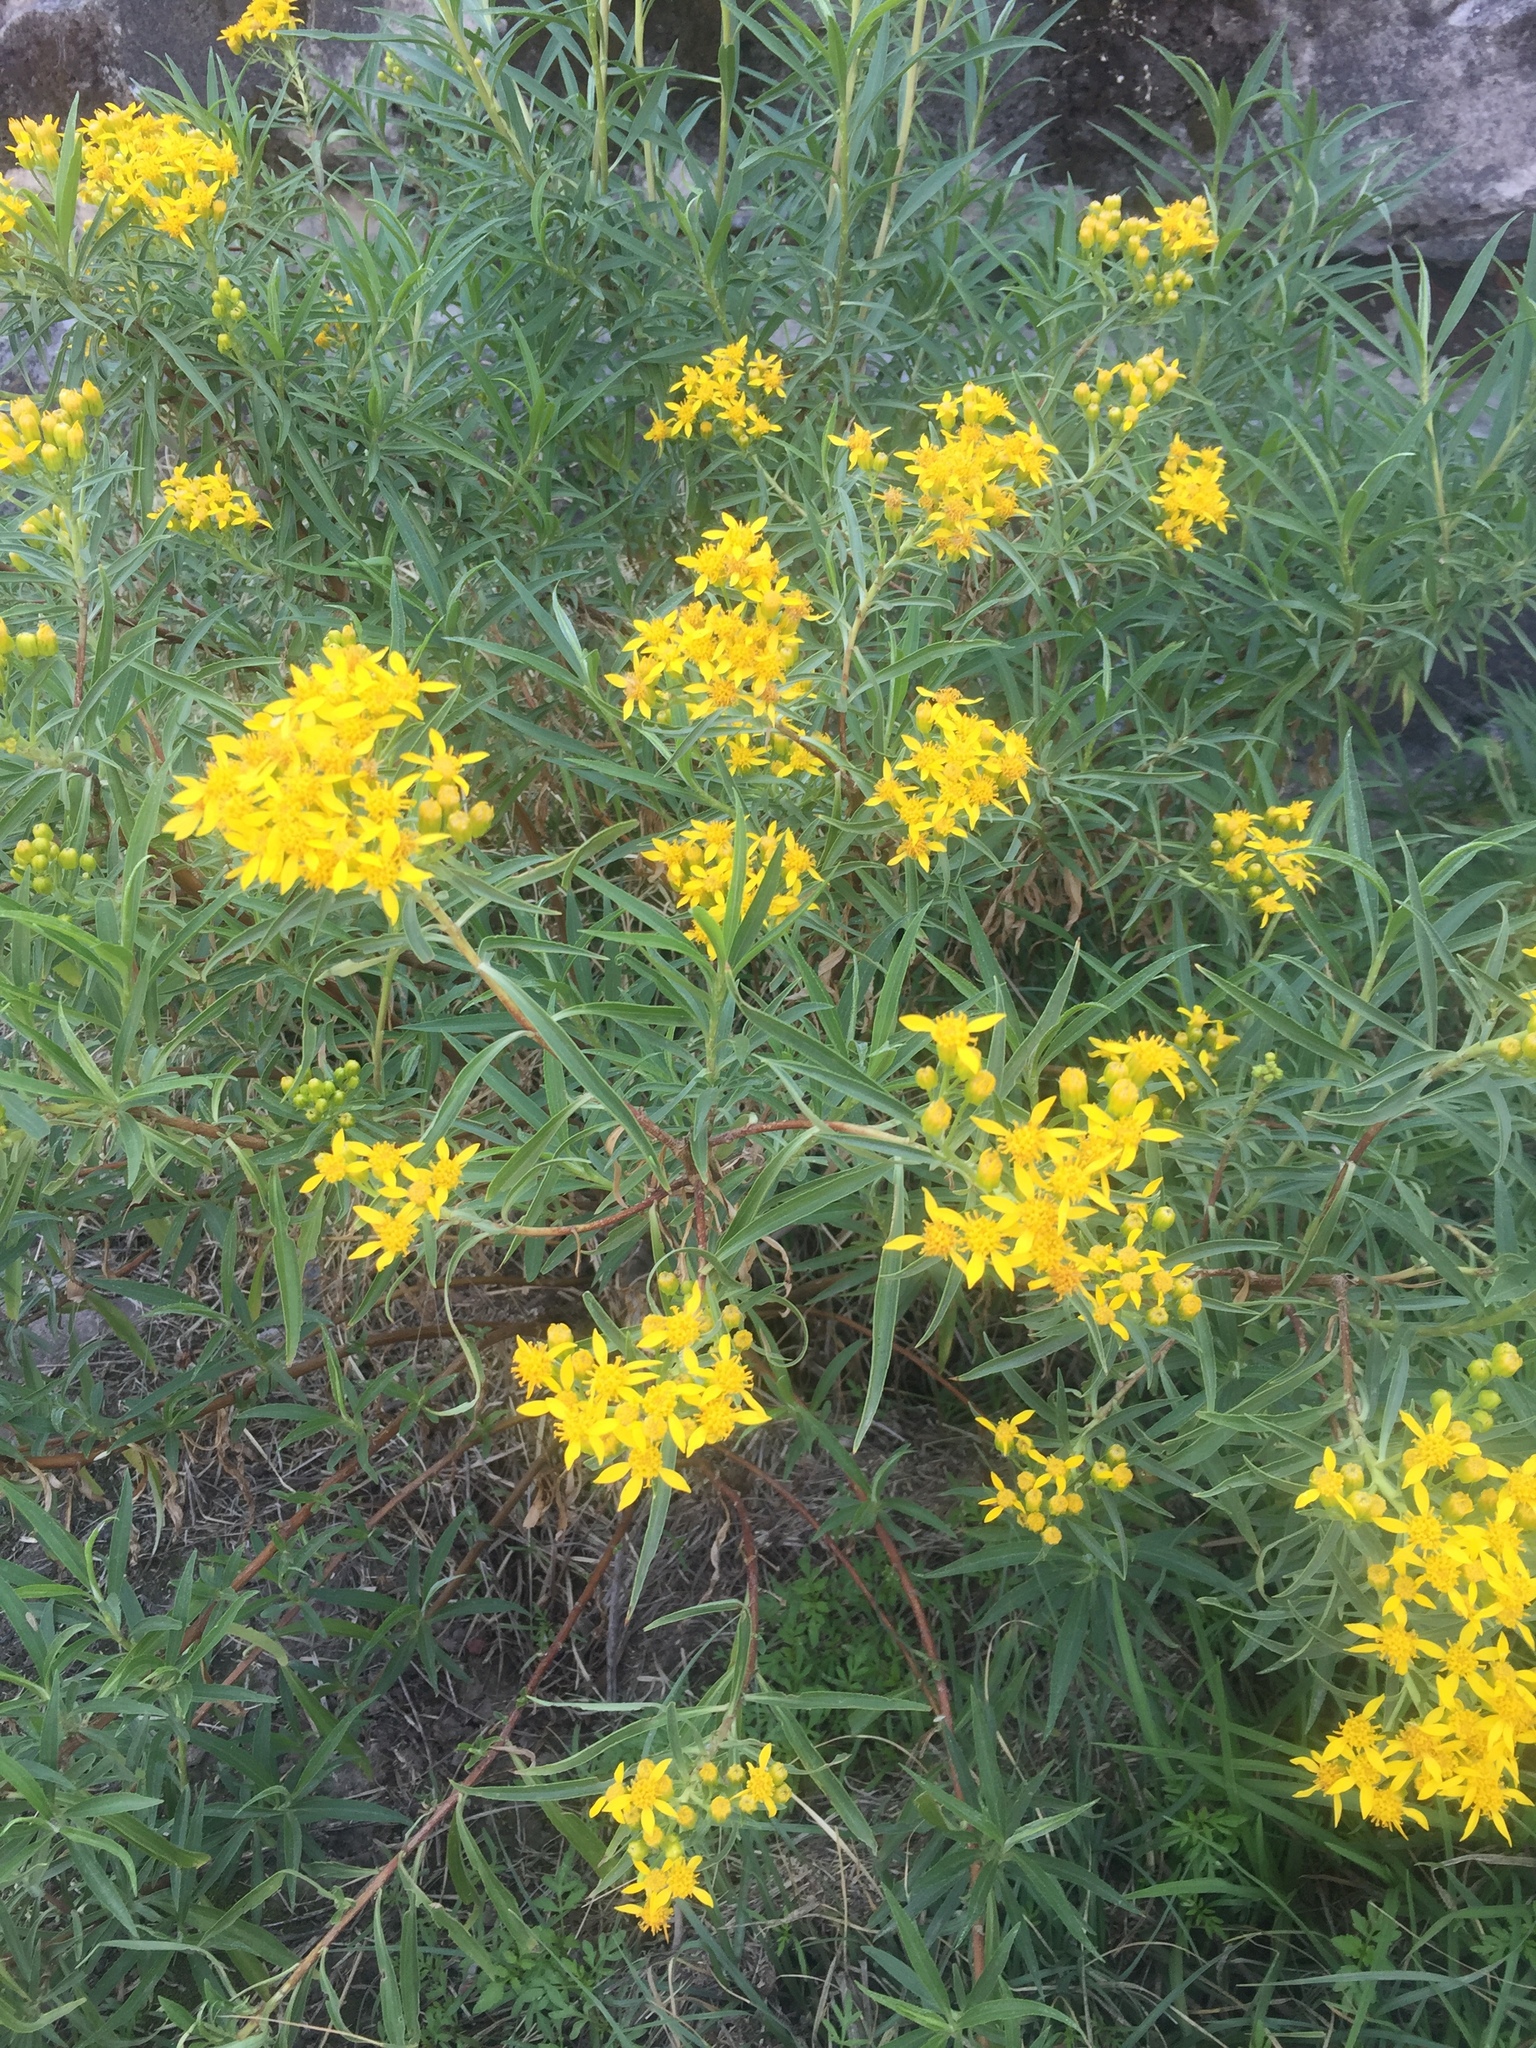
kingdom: Plantae
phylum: Tracheophyta
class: Magnoliopsida
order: Asterales
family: Asteraceae
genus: Barkleyanthus
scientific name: Barkleyanthus salicifolius
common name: Willow ragwort
